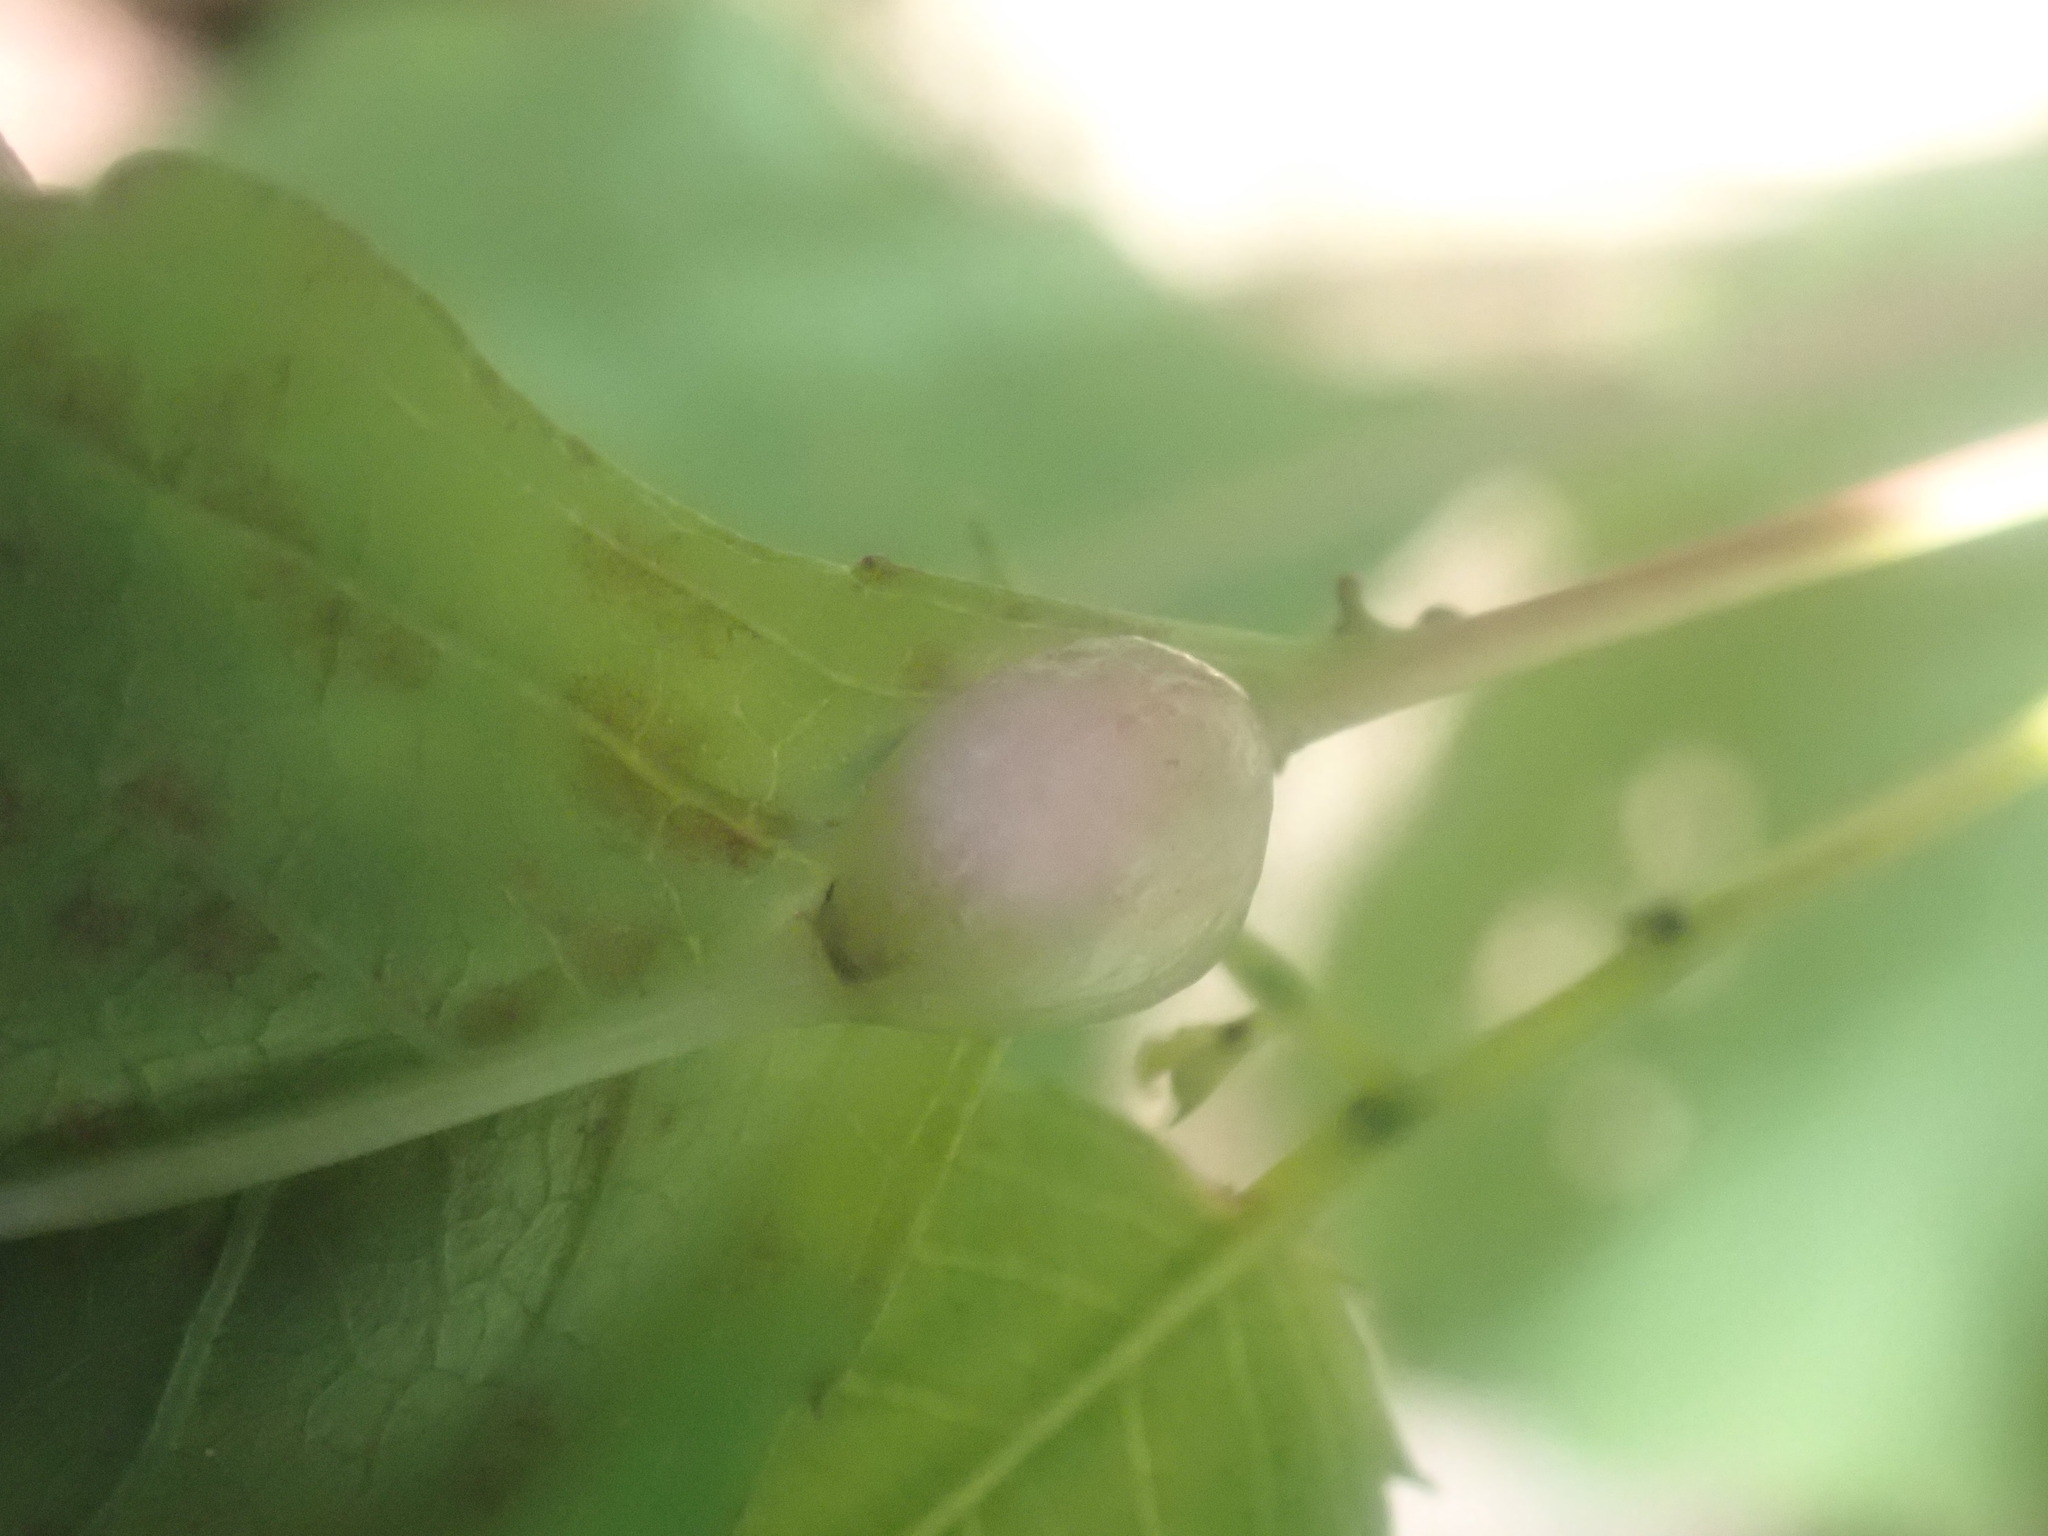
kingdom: Animalia
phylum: Arthropoda
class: Insecta
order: Diptera
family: Cecidomyiidae
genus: Neolasioptera
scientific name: Neolasioptera impatientifolia
